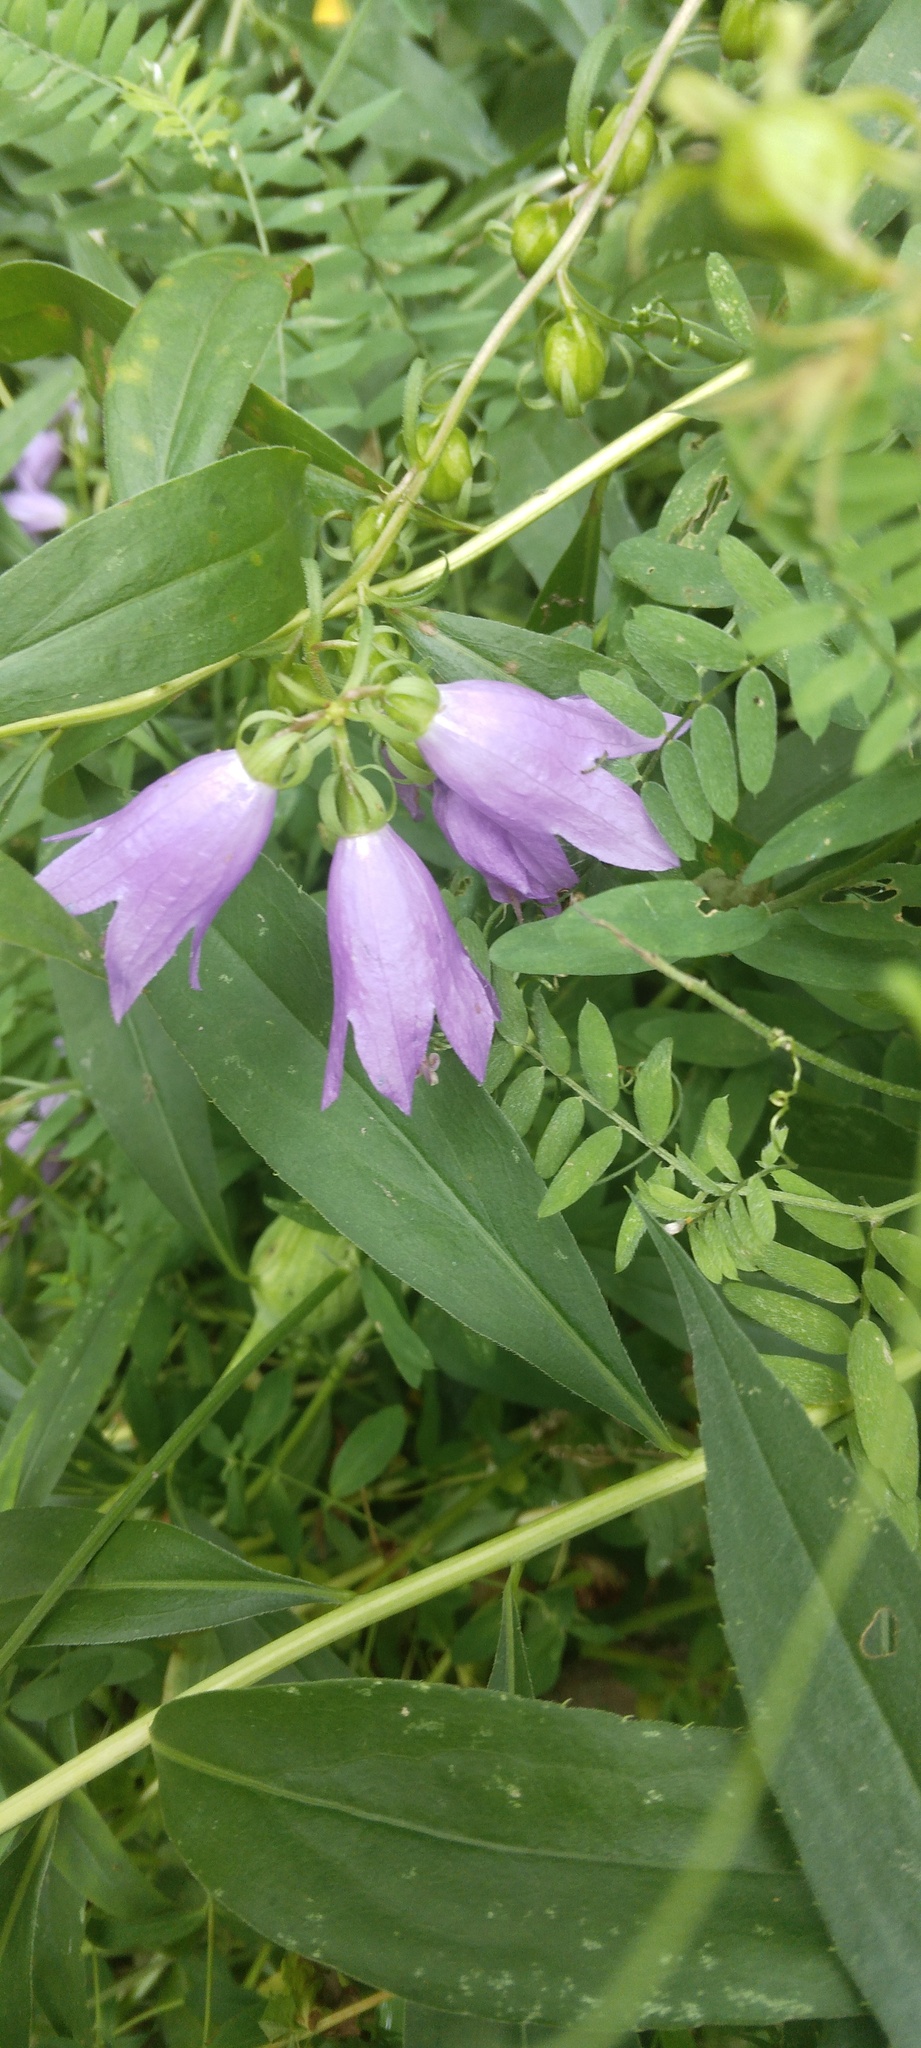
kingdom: Plantae
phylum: Tracheophyta
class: Magnoliopsida
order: Asterales
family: Campanulaceae
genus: Campanula
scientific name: Campanula rapunculoides
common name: Creeping bellflower
